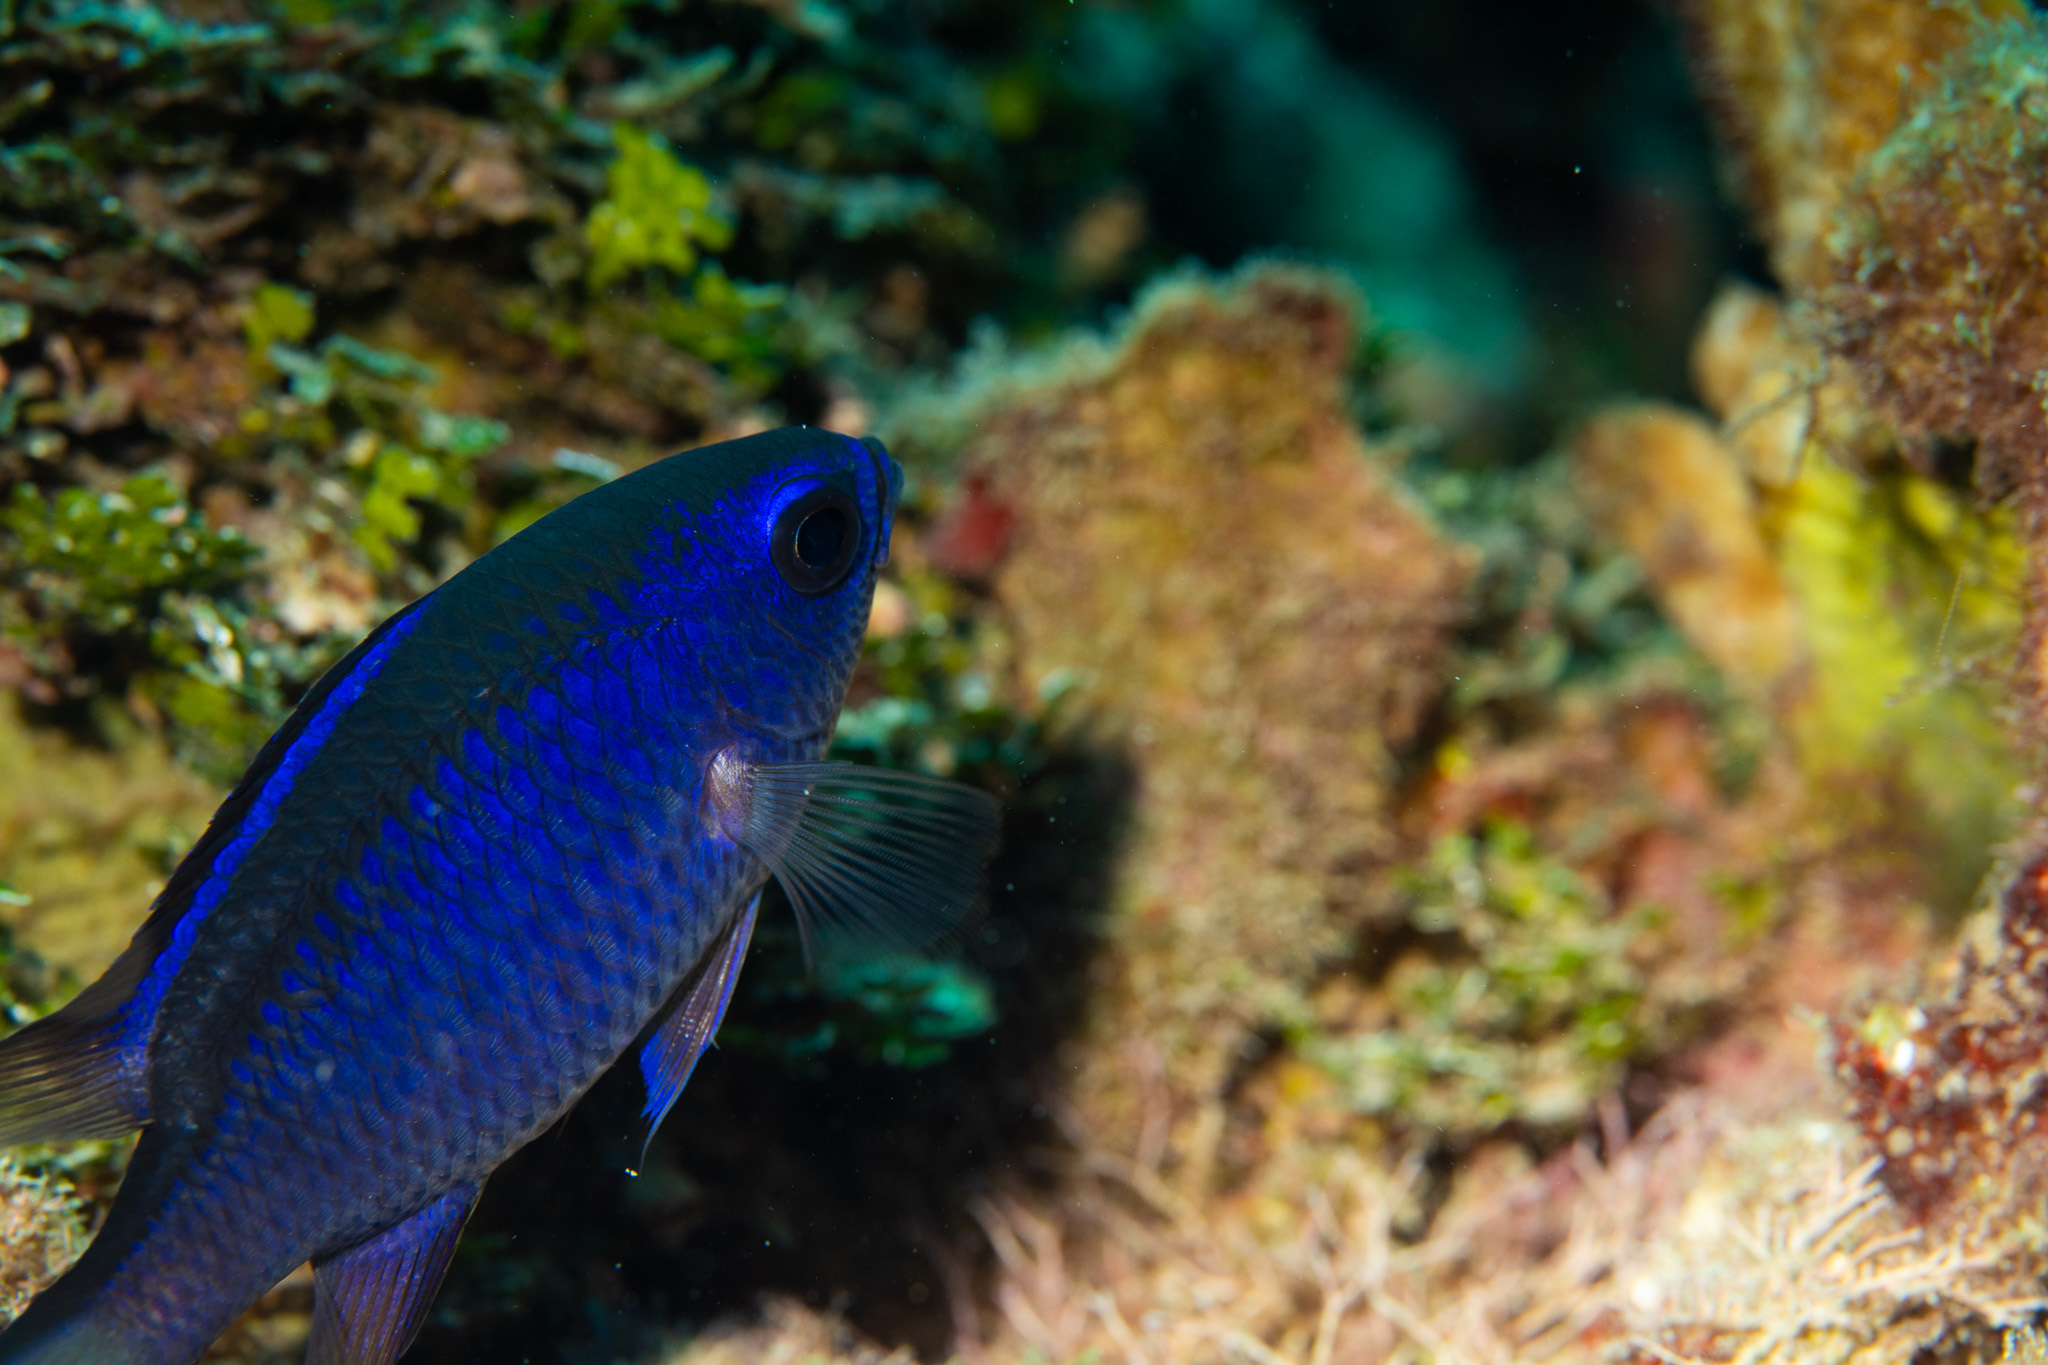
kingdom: Animalia
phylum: Chordata
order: Perciformes
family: Pomacentridae
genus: Chromis
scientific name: Chromis cyanea
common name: Blue chromis
